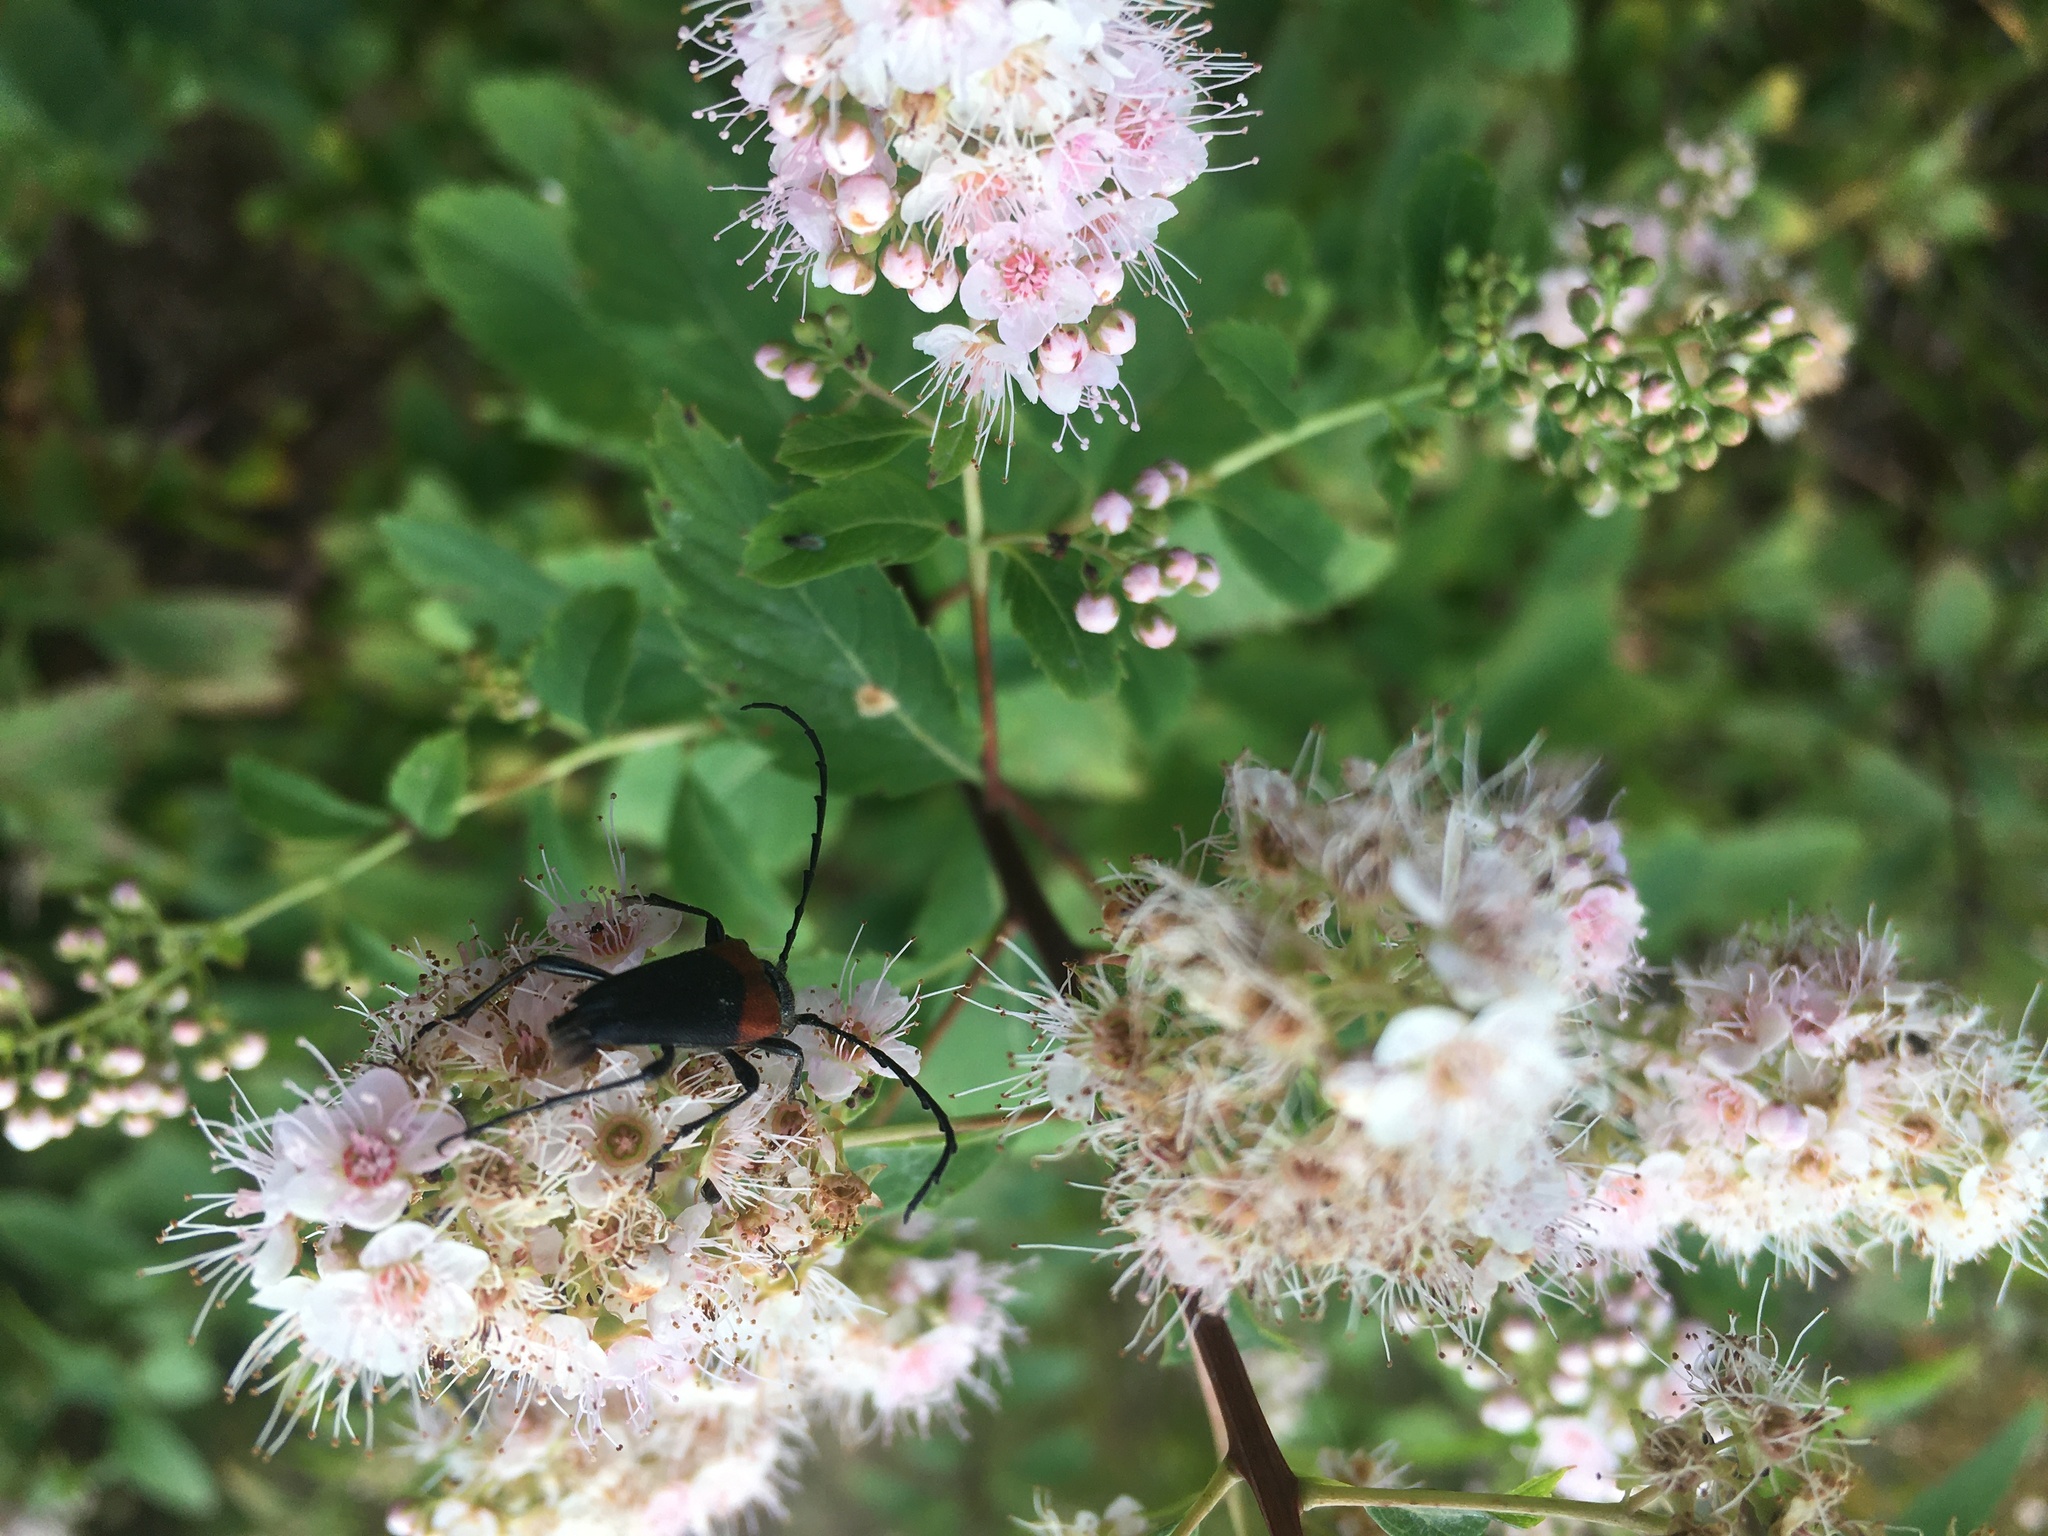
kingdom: Animalia
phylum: Arthropoda
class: Insecta
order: Coleoptera
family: Cerambycidae
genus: Stictoleptura
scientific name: Stictoleptura canadensis
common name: Red-shouldered pine borer
